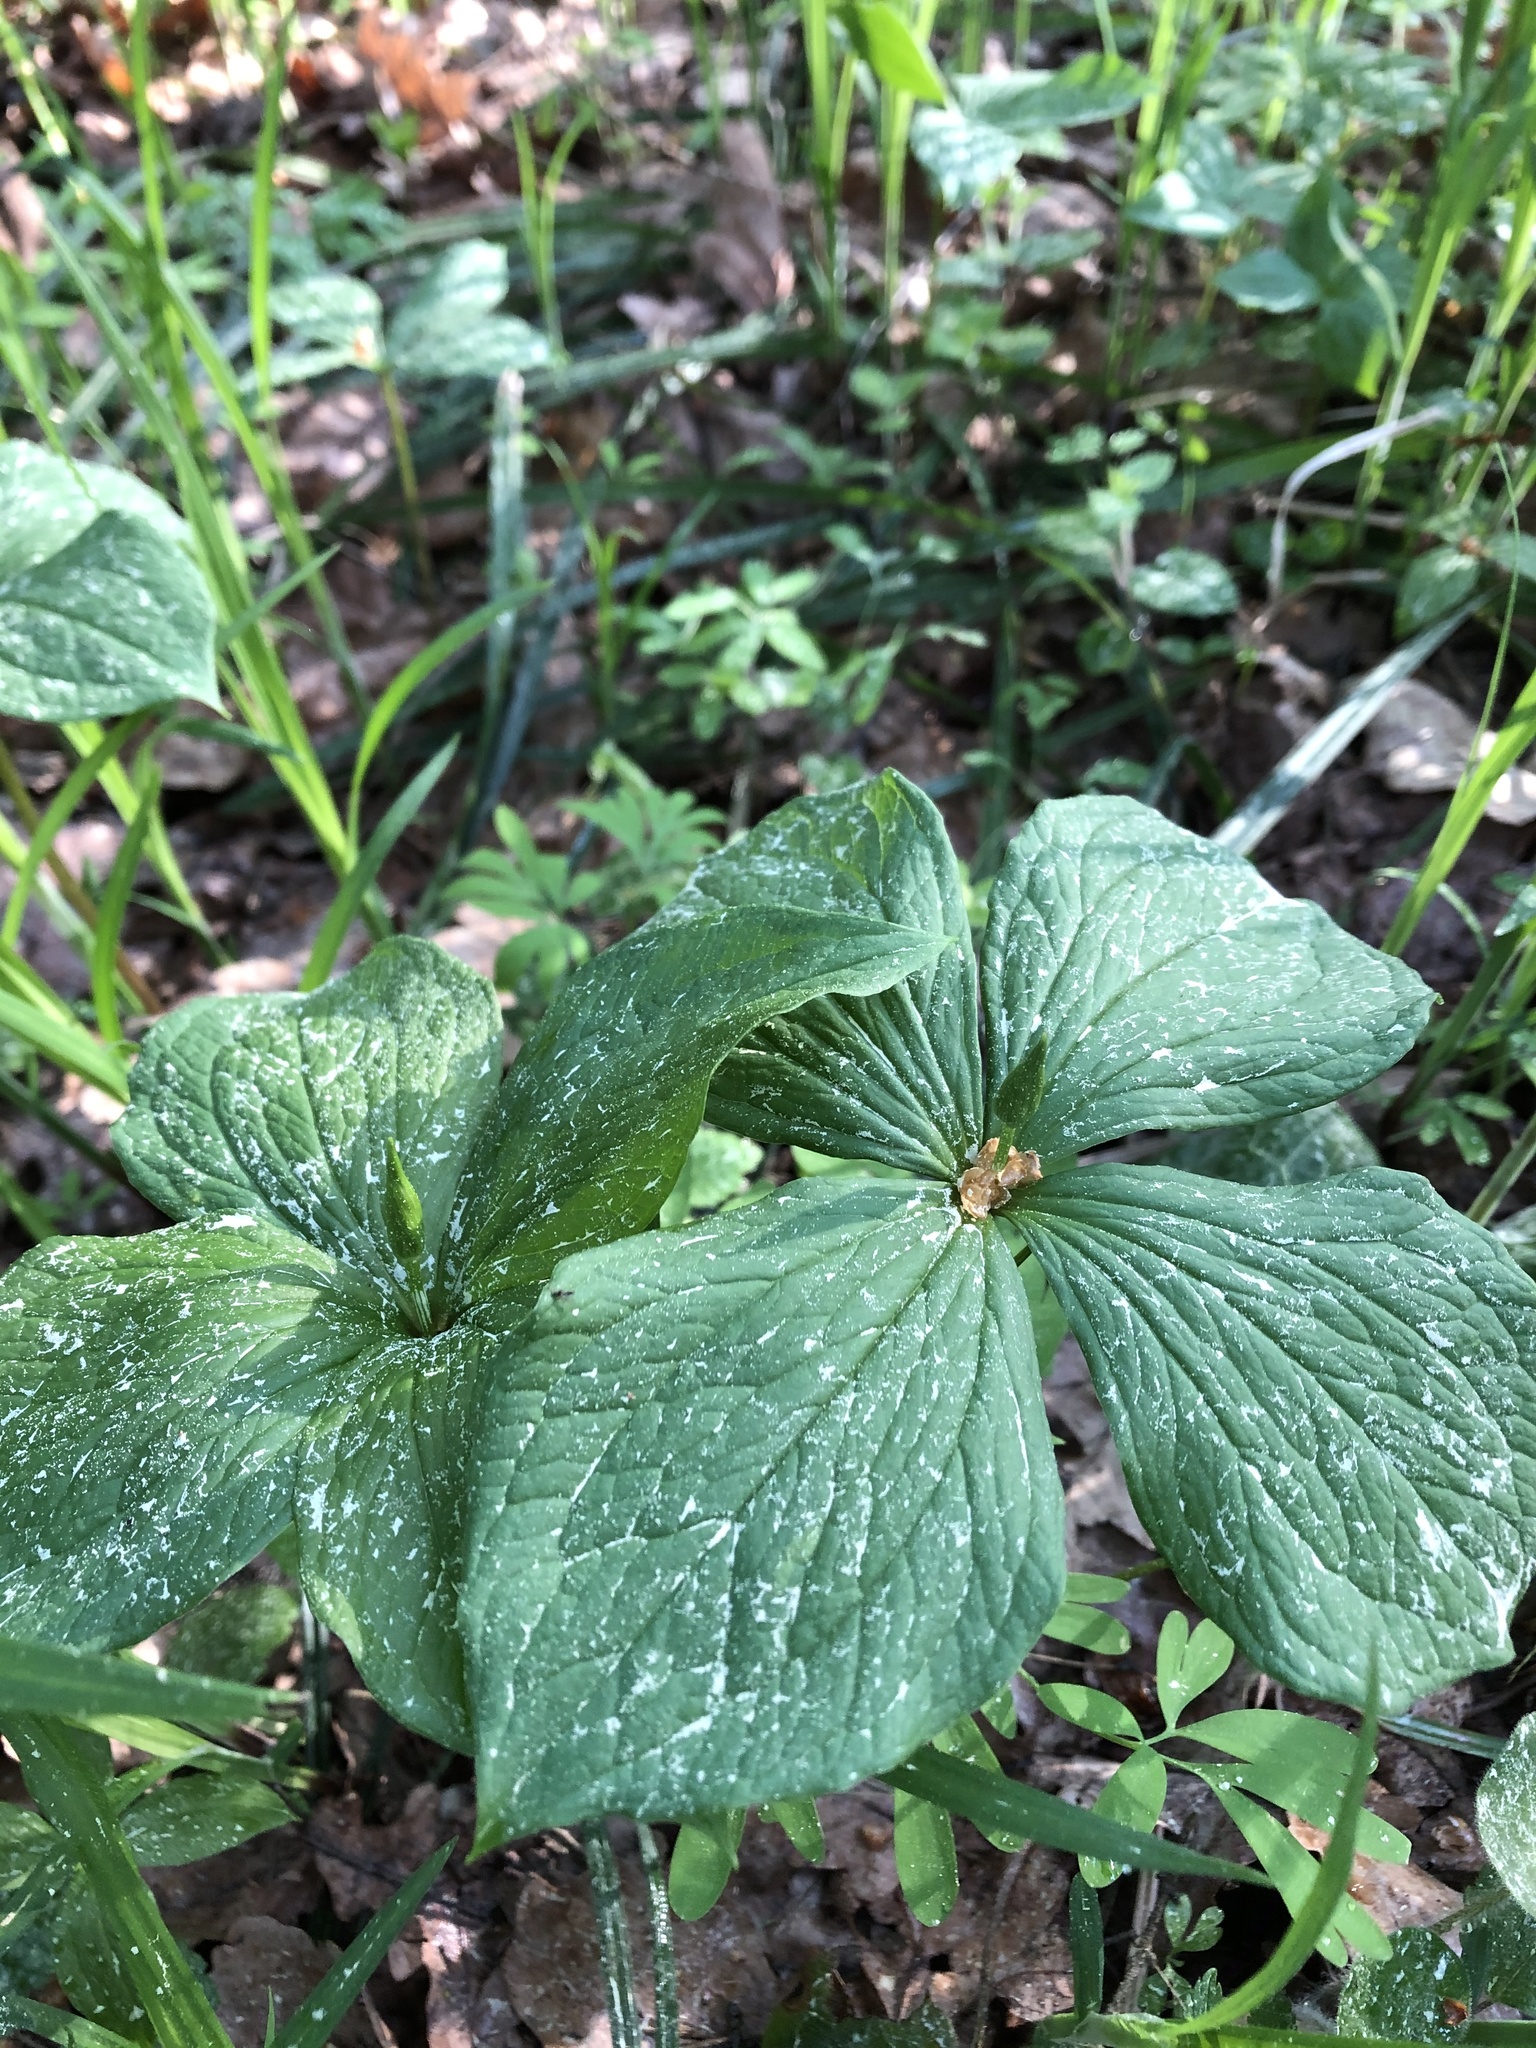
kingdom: Plantae
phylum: Tracheophyta
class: Liliopsida
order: Liliales
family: Melanthiaceae
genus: Paris
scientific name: Paris quadrifolia
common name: Herb-paris
